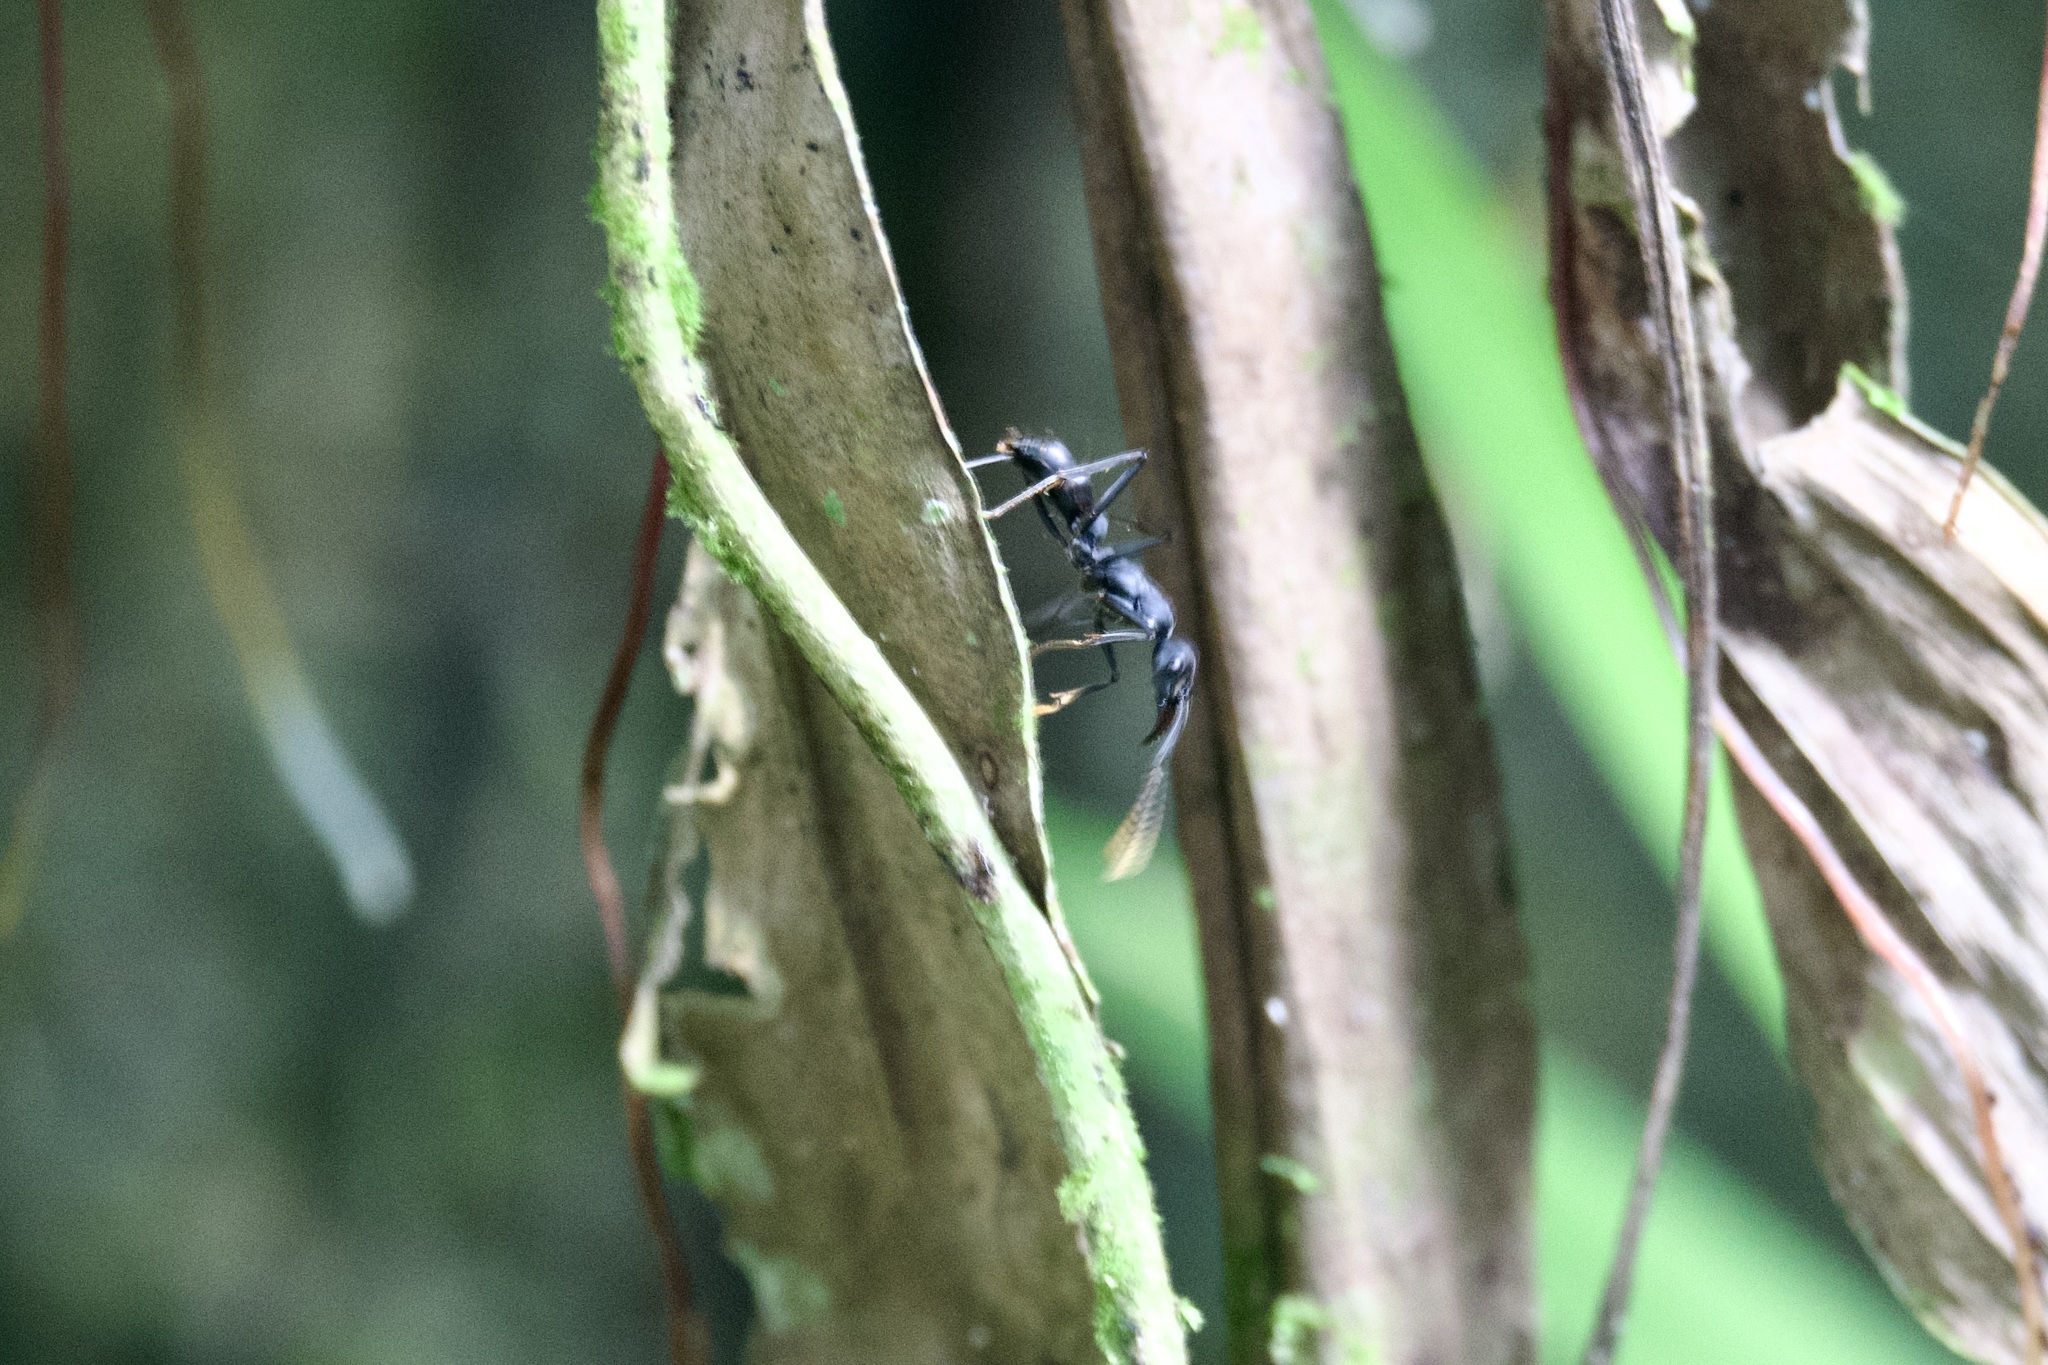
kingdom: Animalia
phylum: Arthropoda
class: Insecta
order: Hymenoptera
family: Formicidae
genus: Pachycondyla
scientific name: Pachycondyla apicalis
